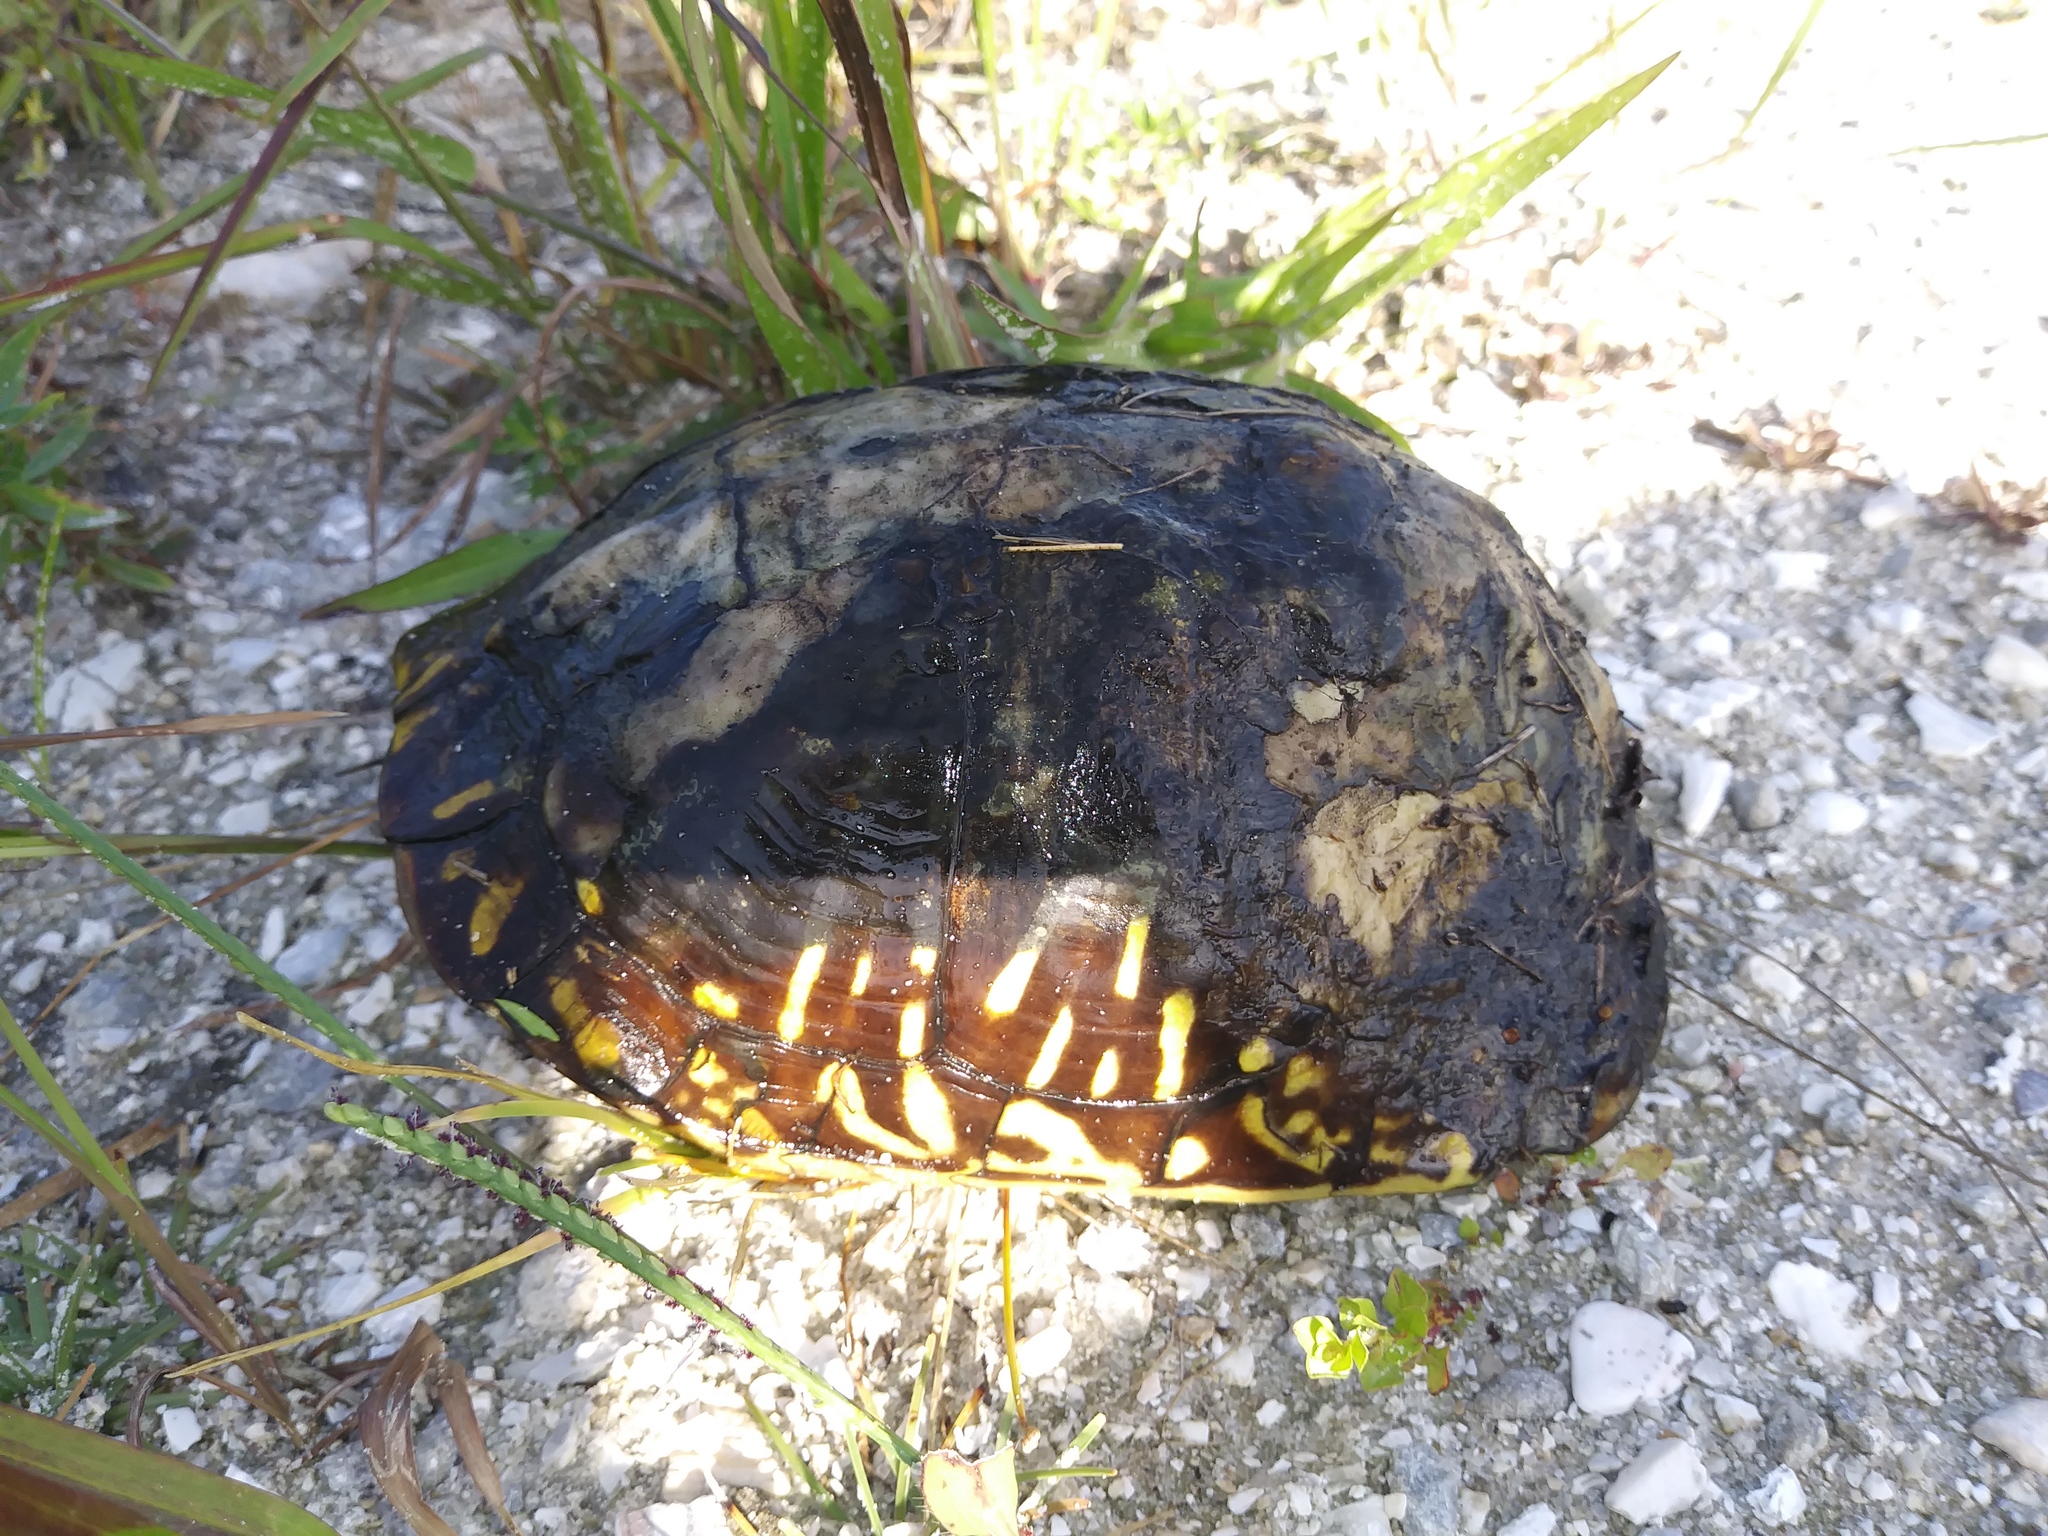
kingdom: Animalia
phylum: Chordata
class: Testudines
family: Emydidae
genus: Terrapene
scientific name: Terrapene carolina
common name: Common box turtle
